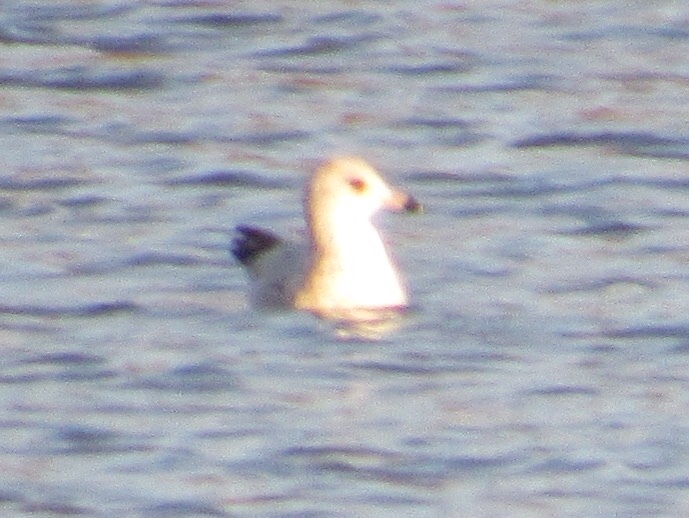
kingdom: Animalia
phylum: Chordata
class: Aves
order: Charadriiformes
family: Laridae
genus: Larus
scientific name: Larus delawarensis
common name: Ring-billed gull
